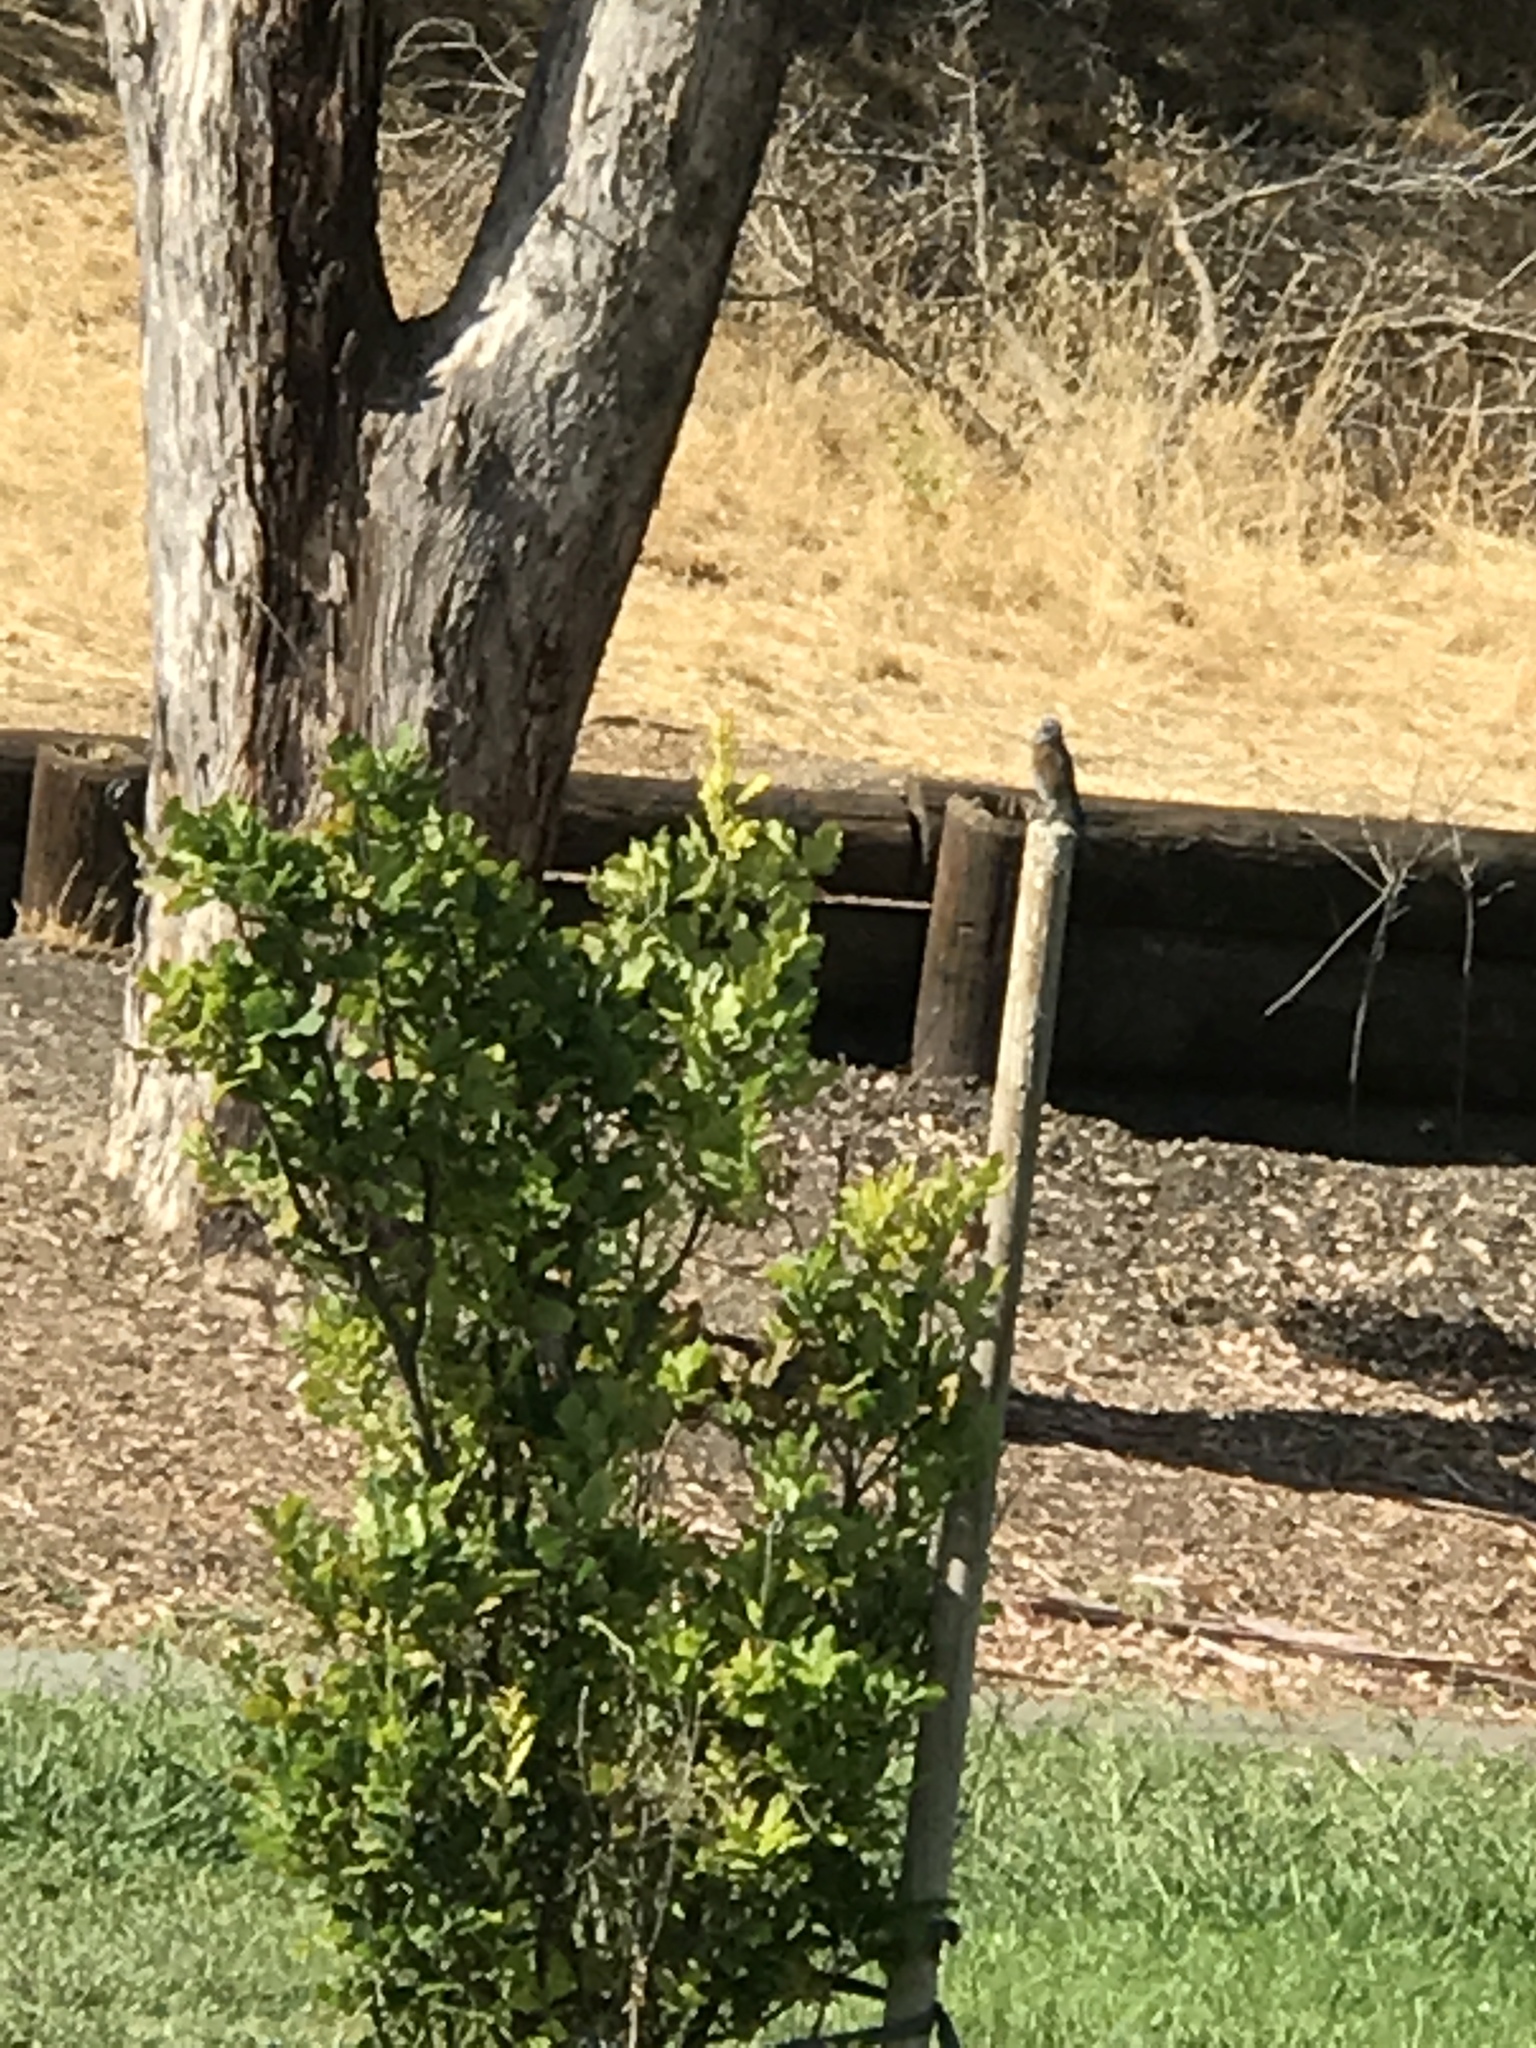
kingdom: Animalia
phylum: Chordata
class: Aves
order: Passeriformes
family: Turdidae
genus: Sialia
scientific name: Sialia mexicana
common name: Western bluebird
